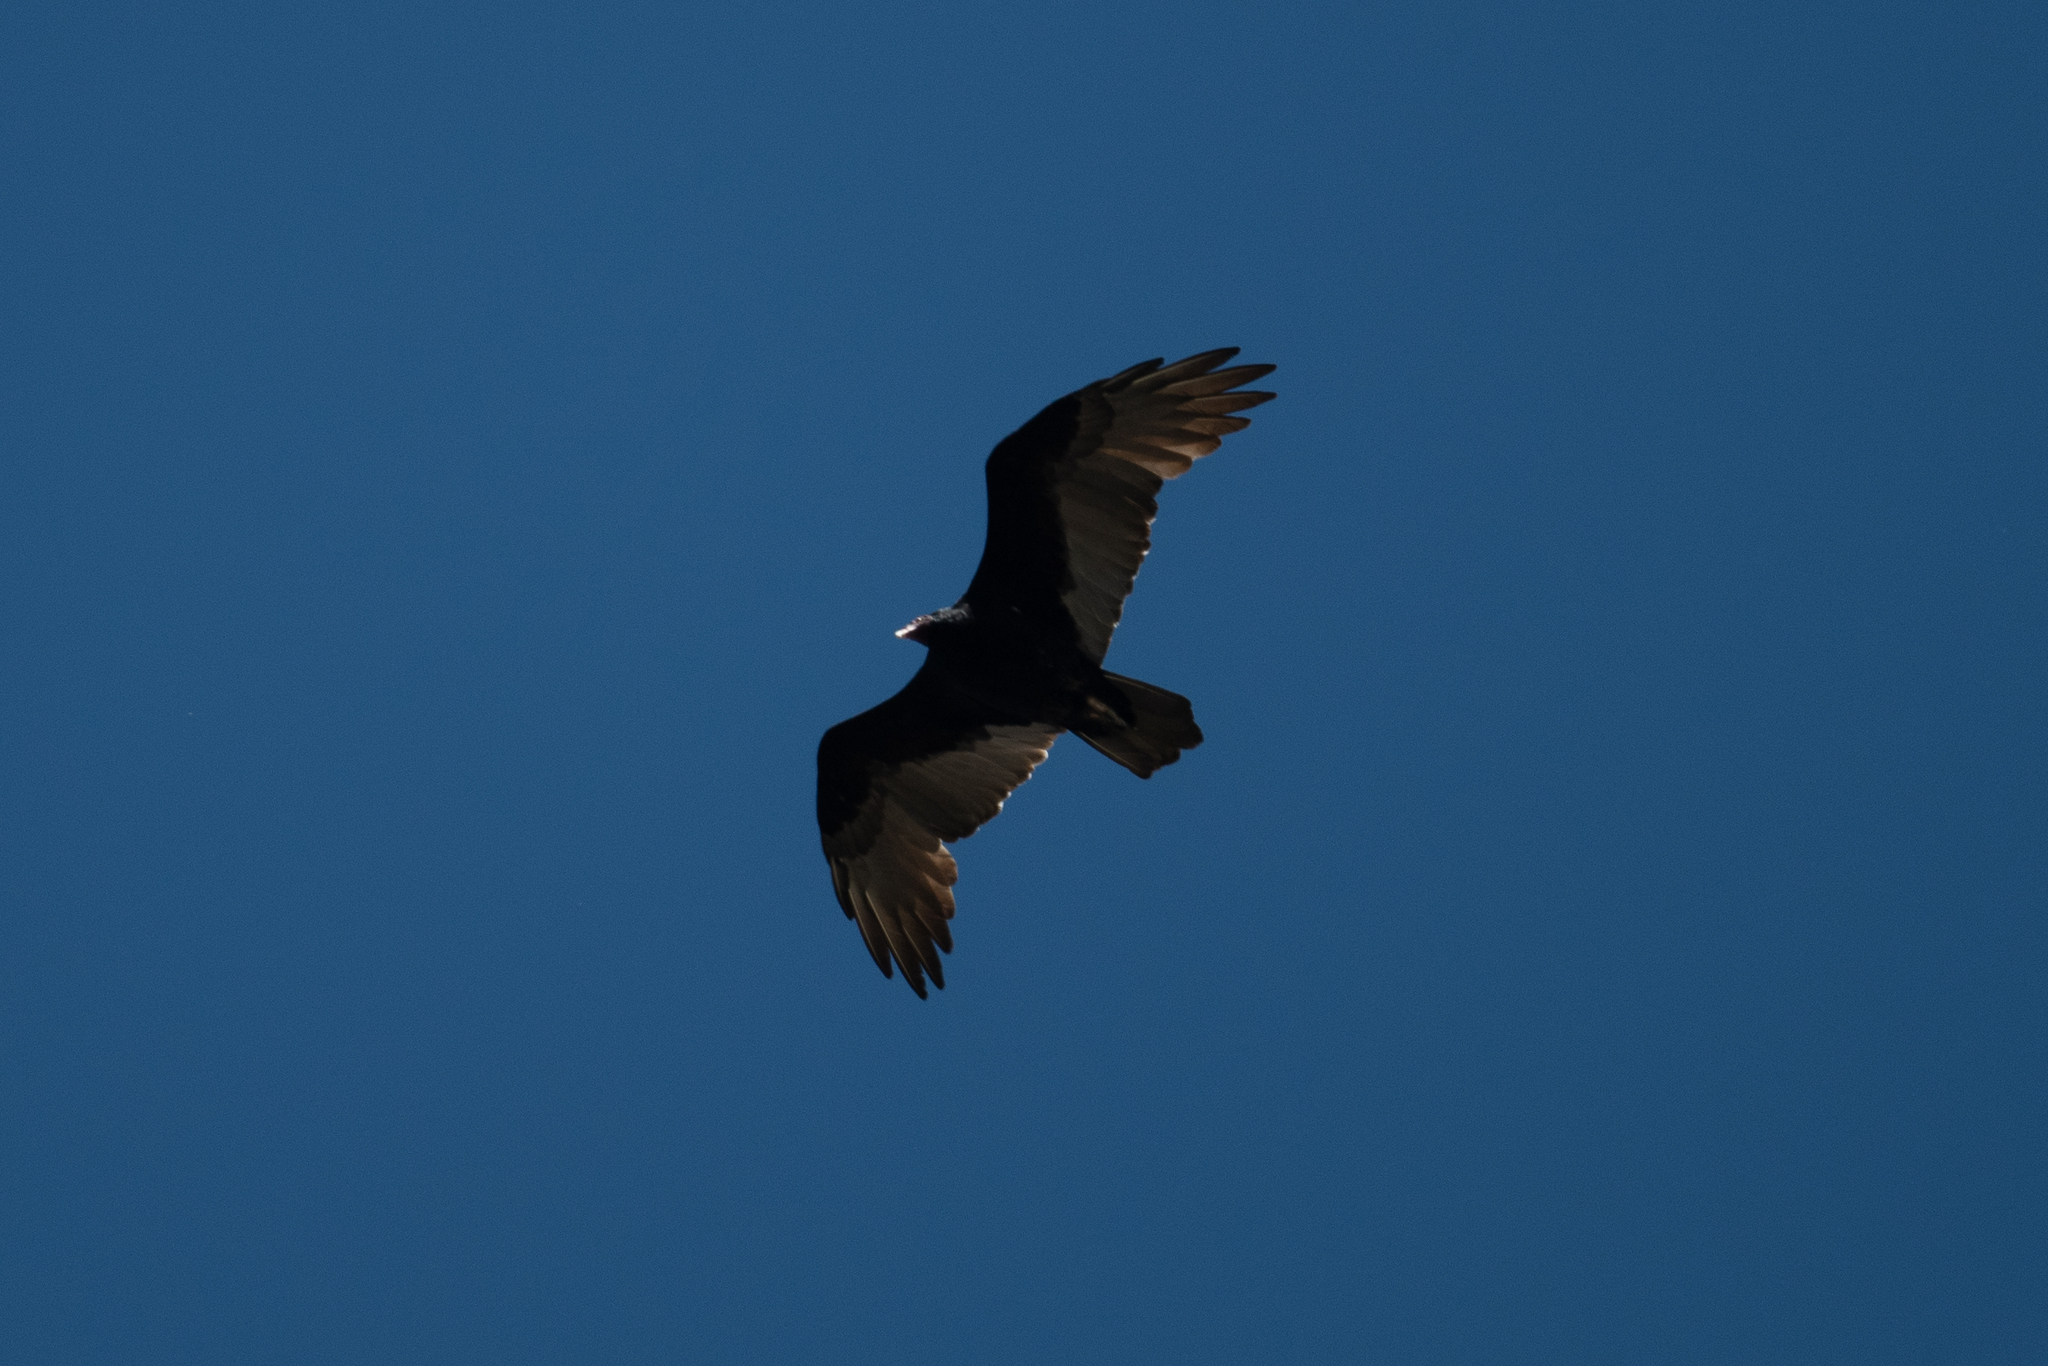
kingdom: Animalia
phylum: Chordata
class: Aves
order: Accipitriformes
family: Cathartidae
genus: Cathartes
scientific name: Cathartes aura
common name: Turkey vulture
